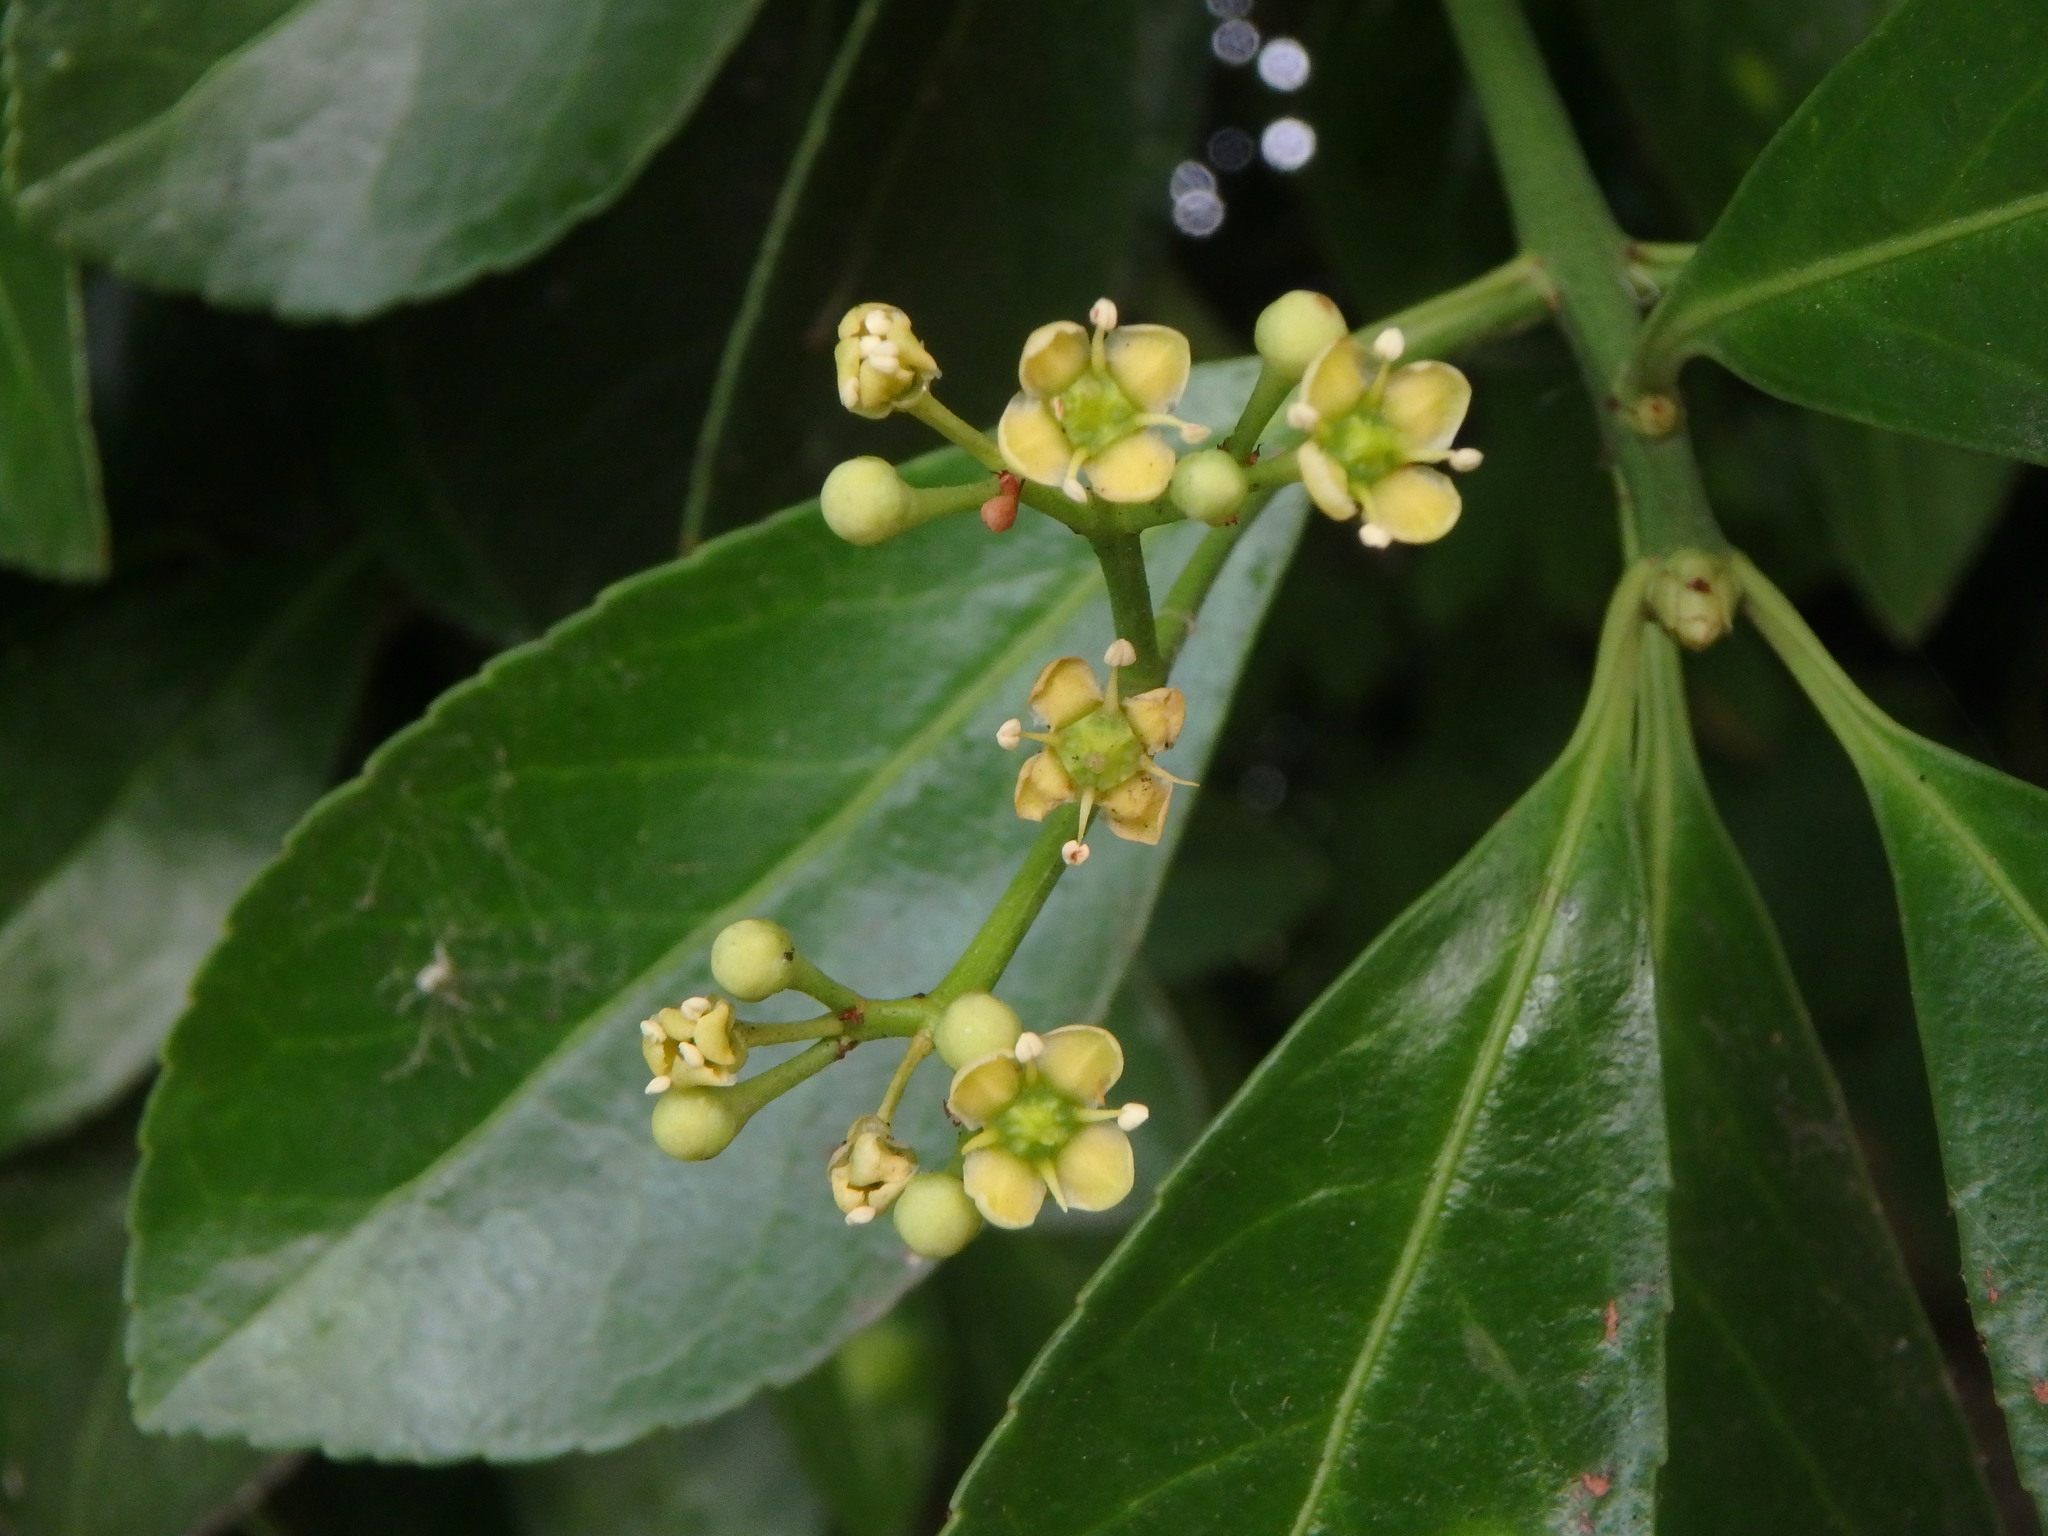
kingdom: Plantae
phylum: Tracheophyta
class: Magnoliopsida
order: Celastrales
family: Celastraceae
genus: Euonymus
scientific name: Euonymus japonicus
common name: Japanese spindletree
